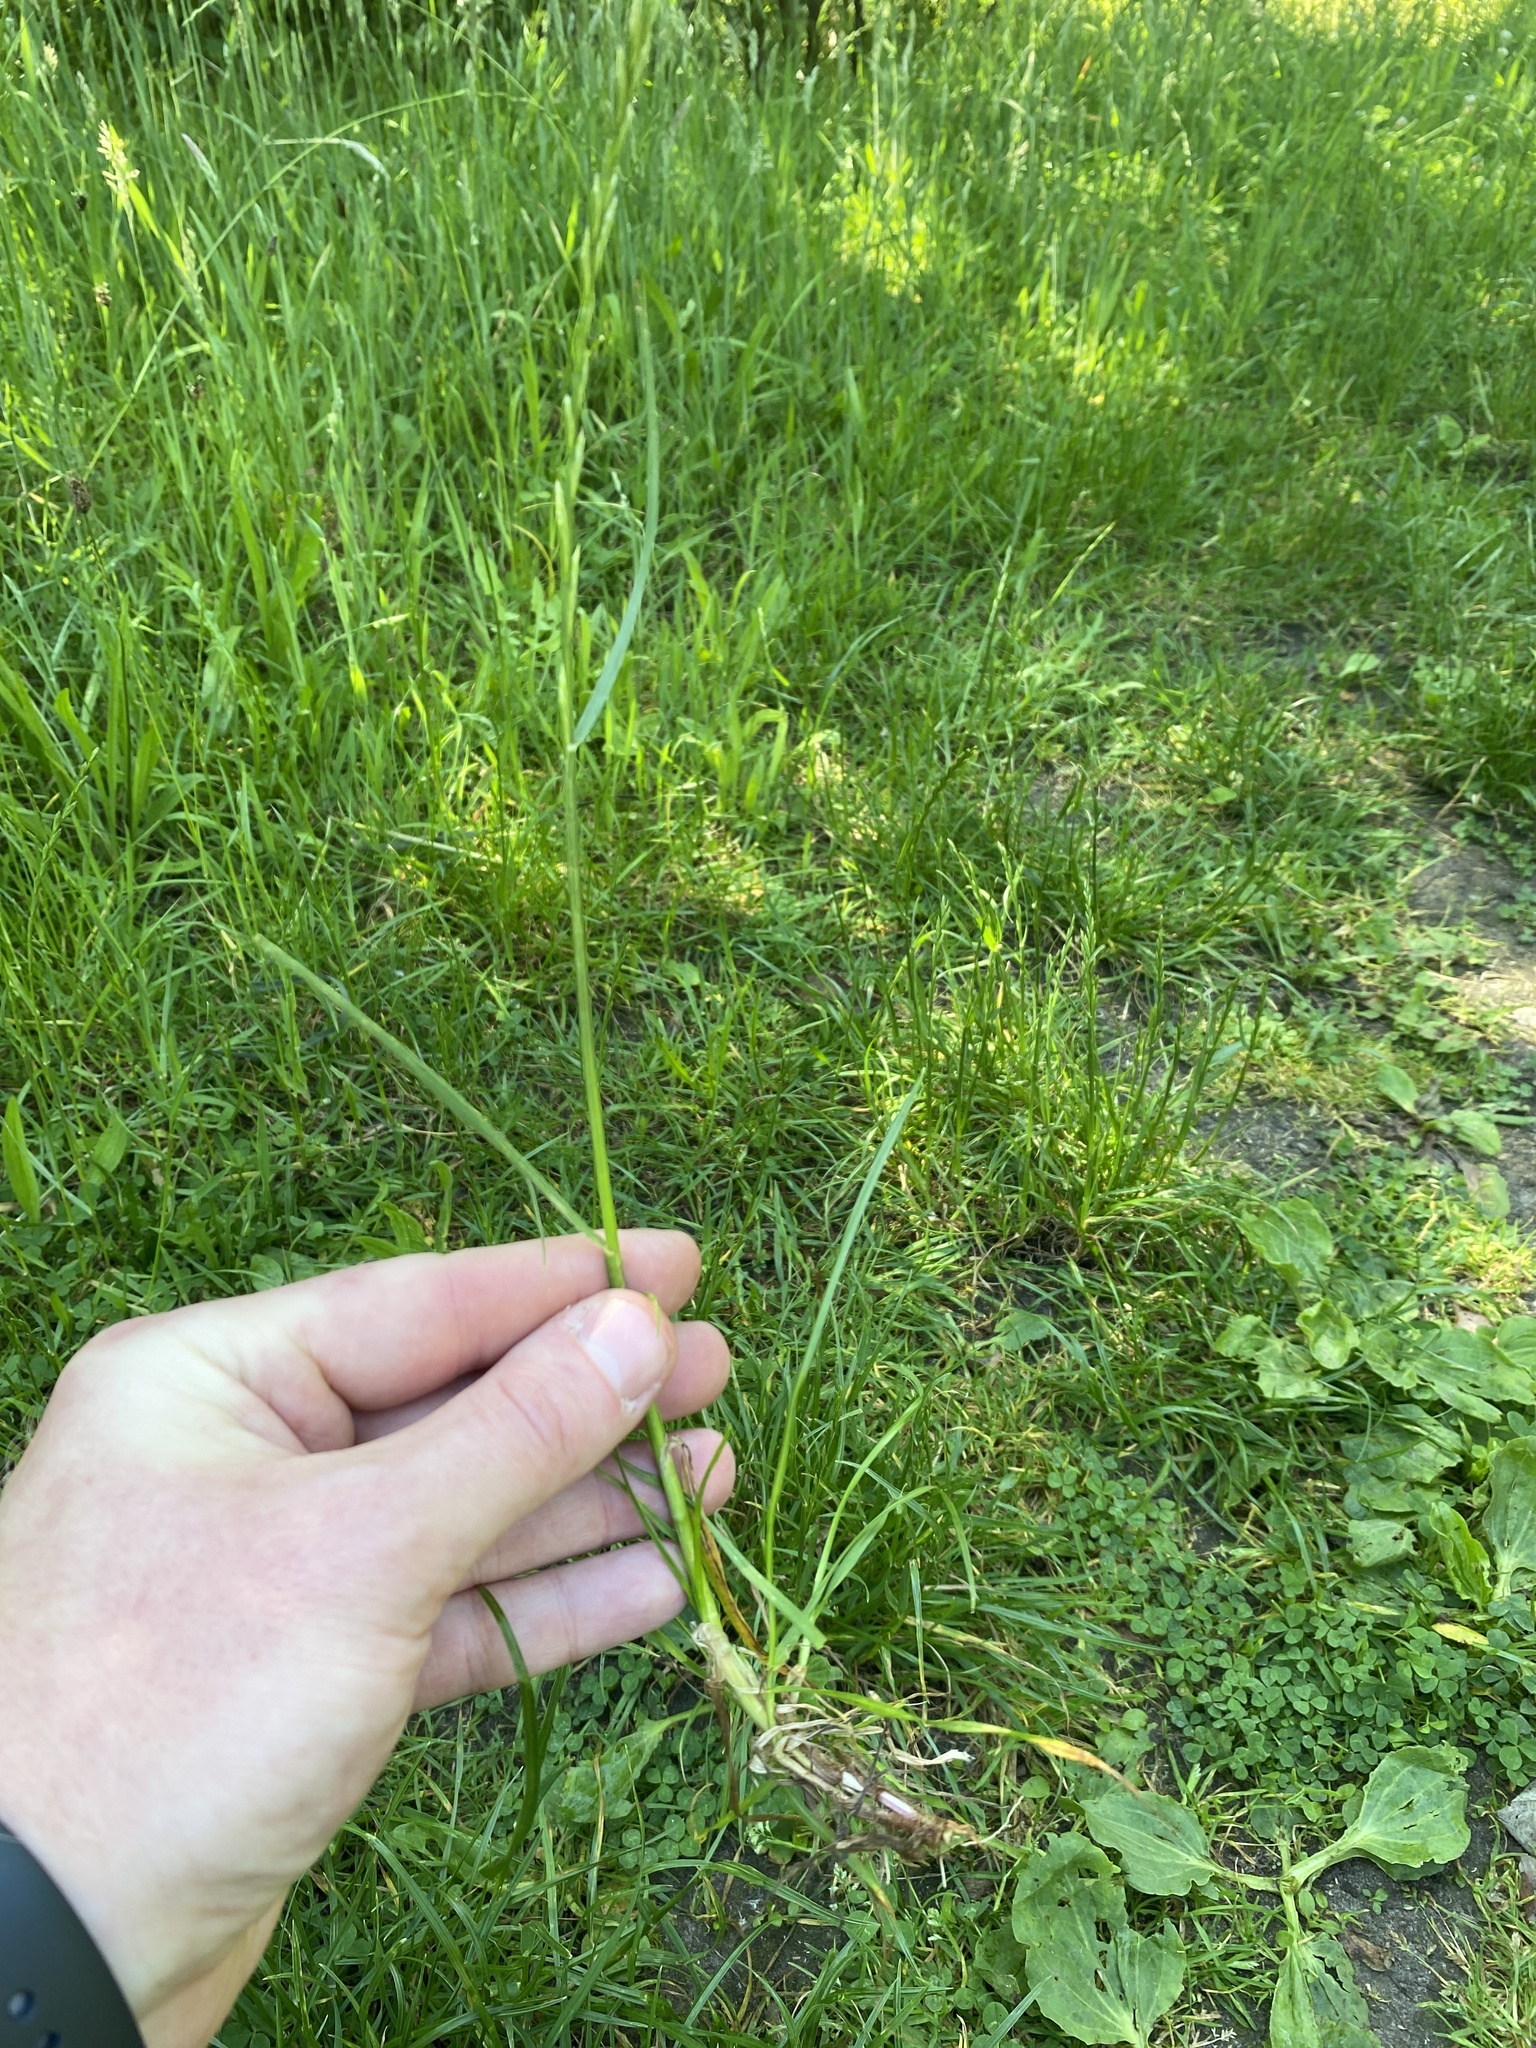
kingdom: Plantae
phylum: Tracheophyta
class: Liliopsida
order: Poales
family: Poaceae
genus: Lolium
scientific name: Lolium perenne
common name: Perennial ryegrass
